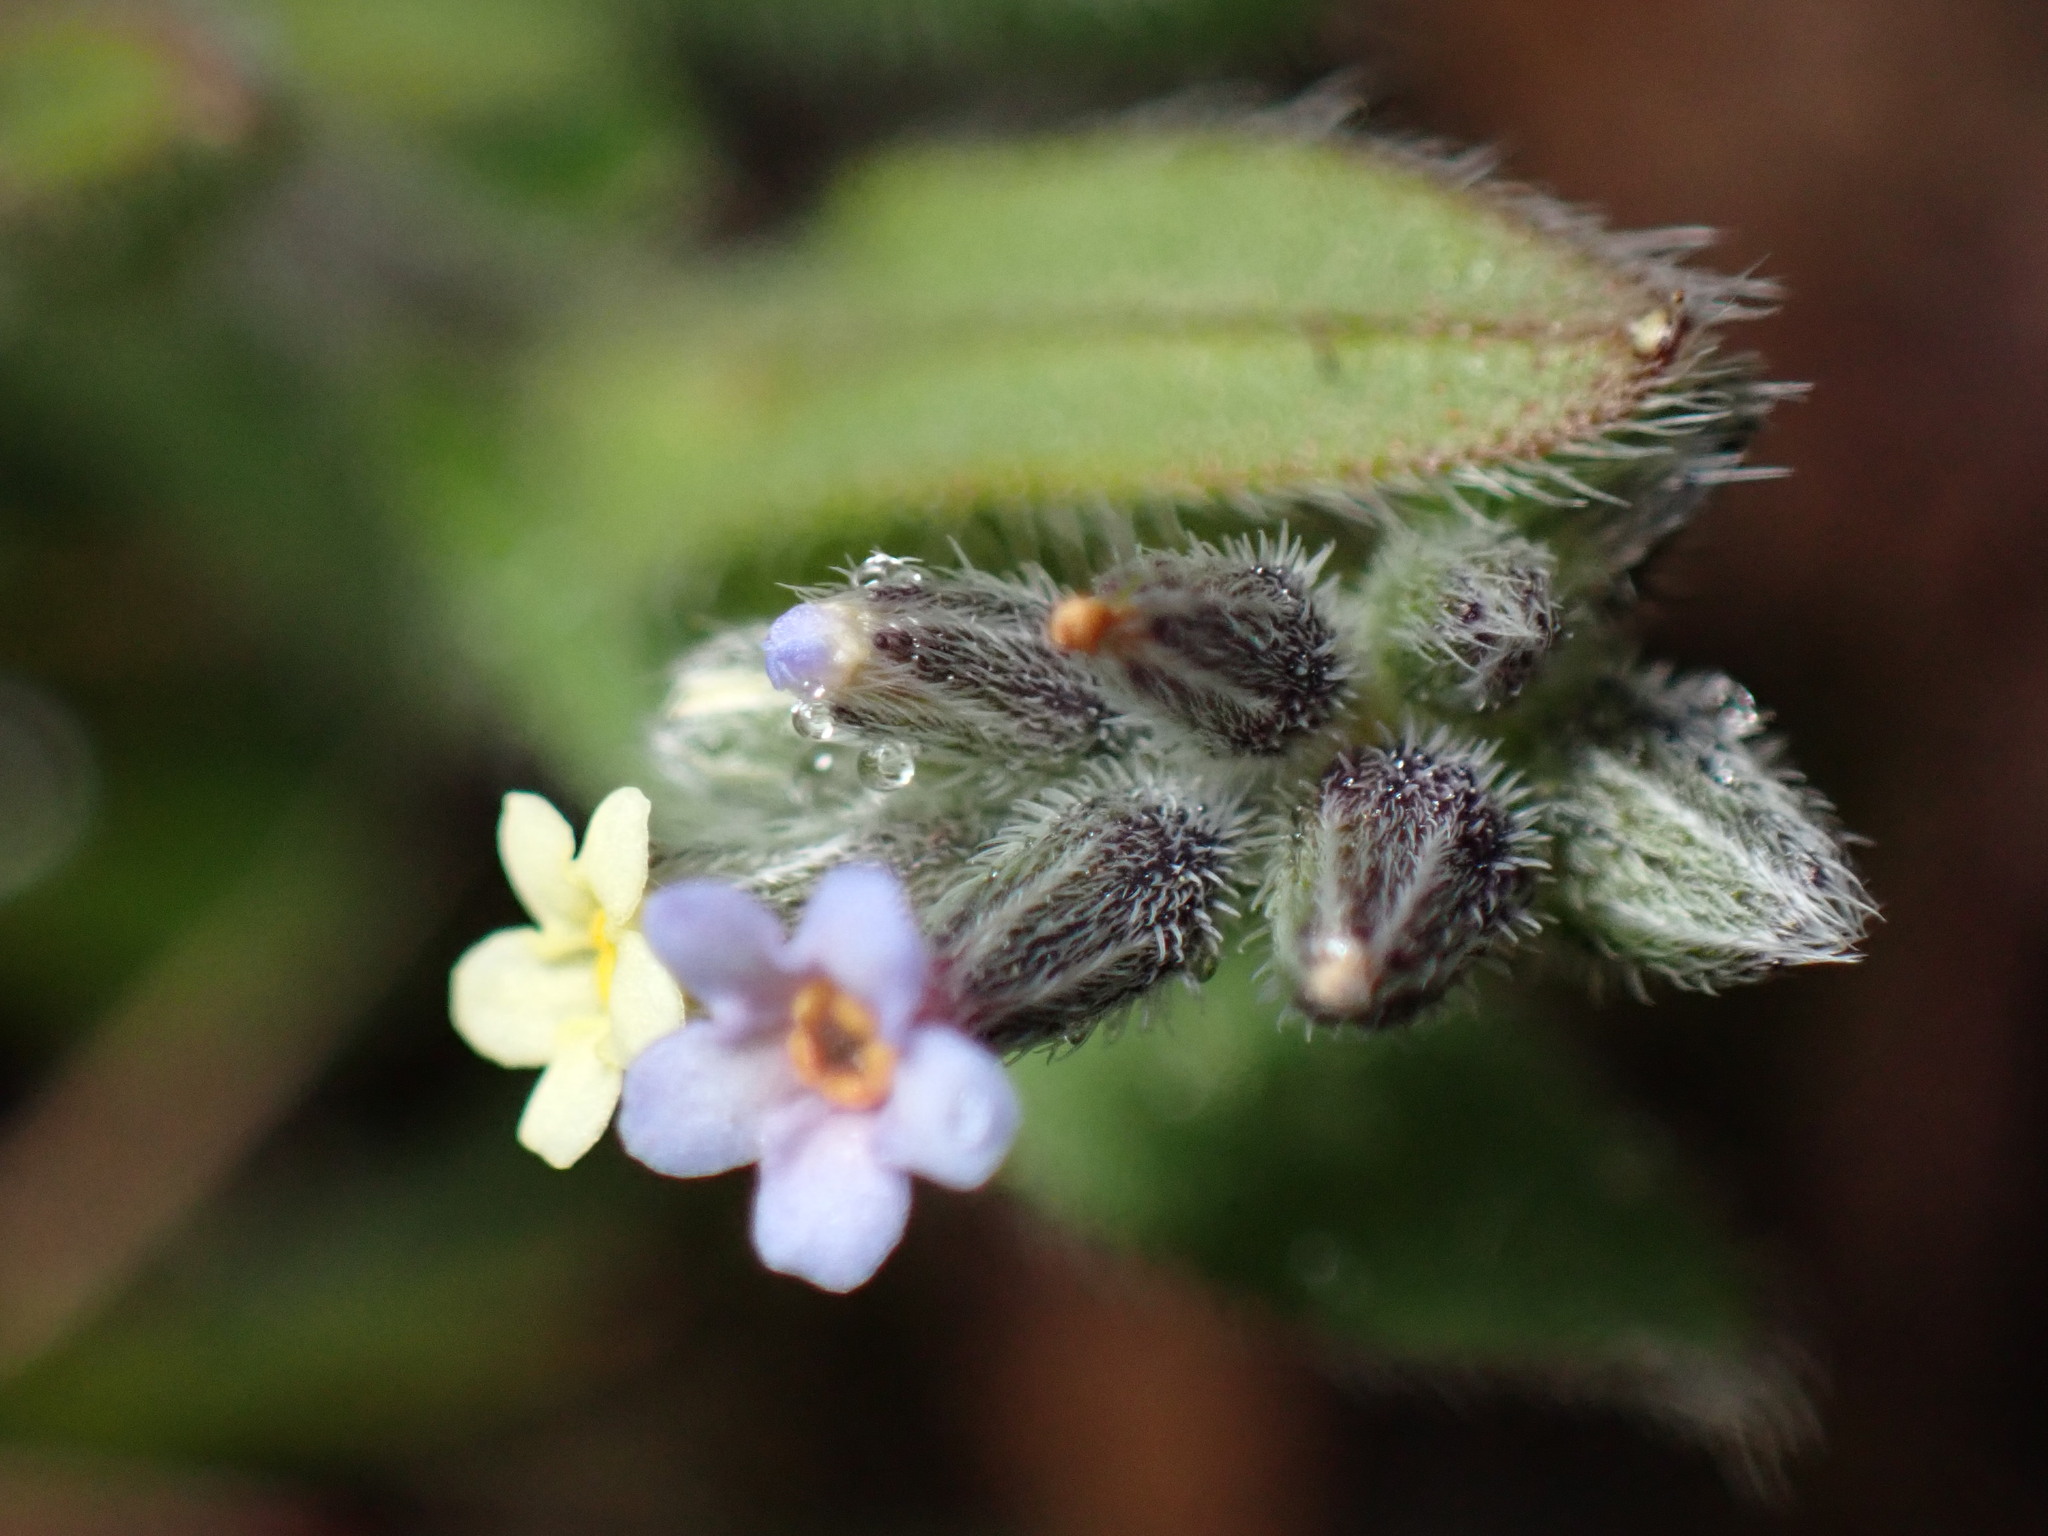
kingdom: Plantae
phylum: Tracheophyta
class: Magnoliopsida
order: Boraginales
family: Boraginaceae
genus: Myosotis
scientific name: Myosotis discolor
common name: Changing forget-me-not
